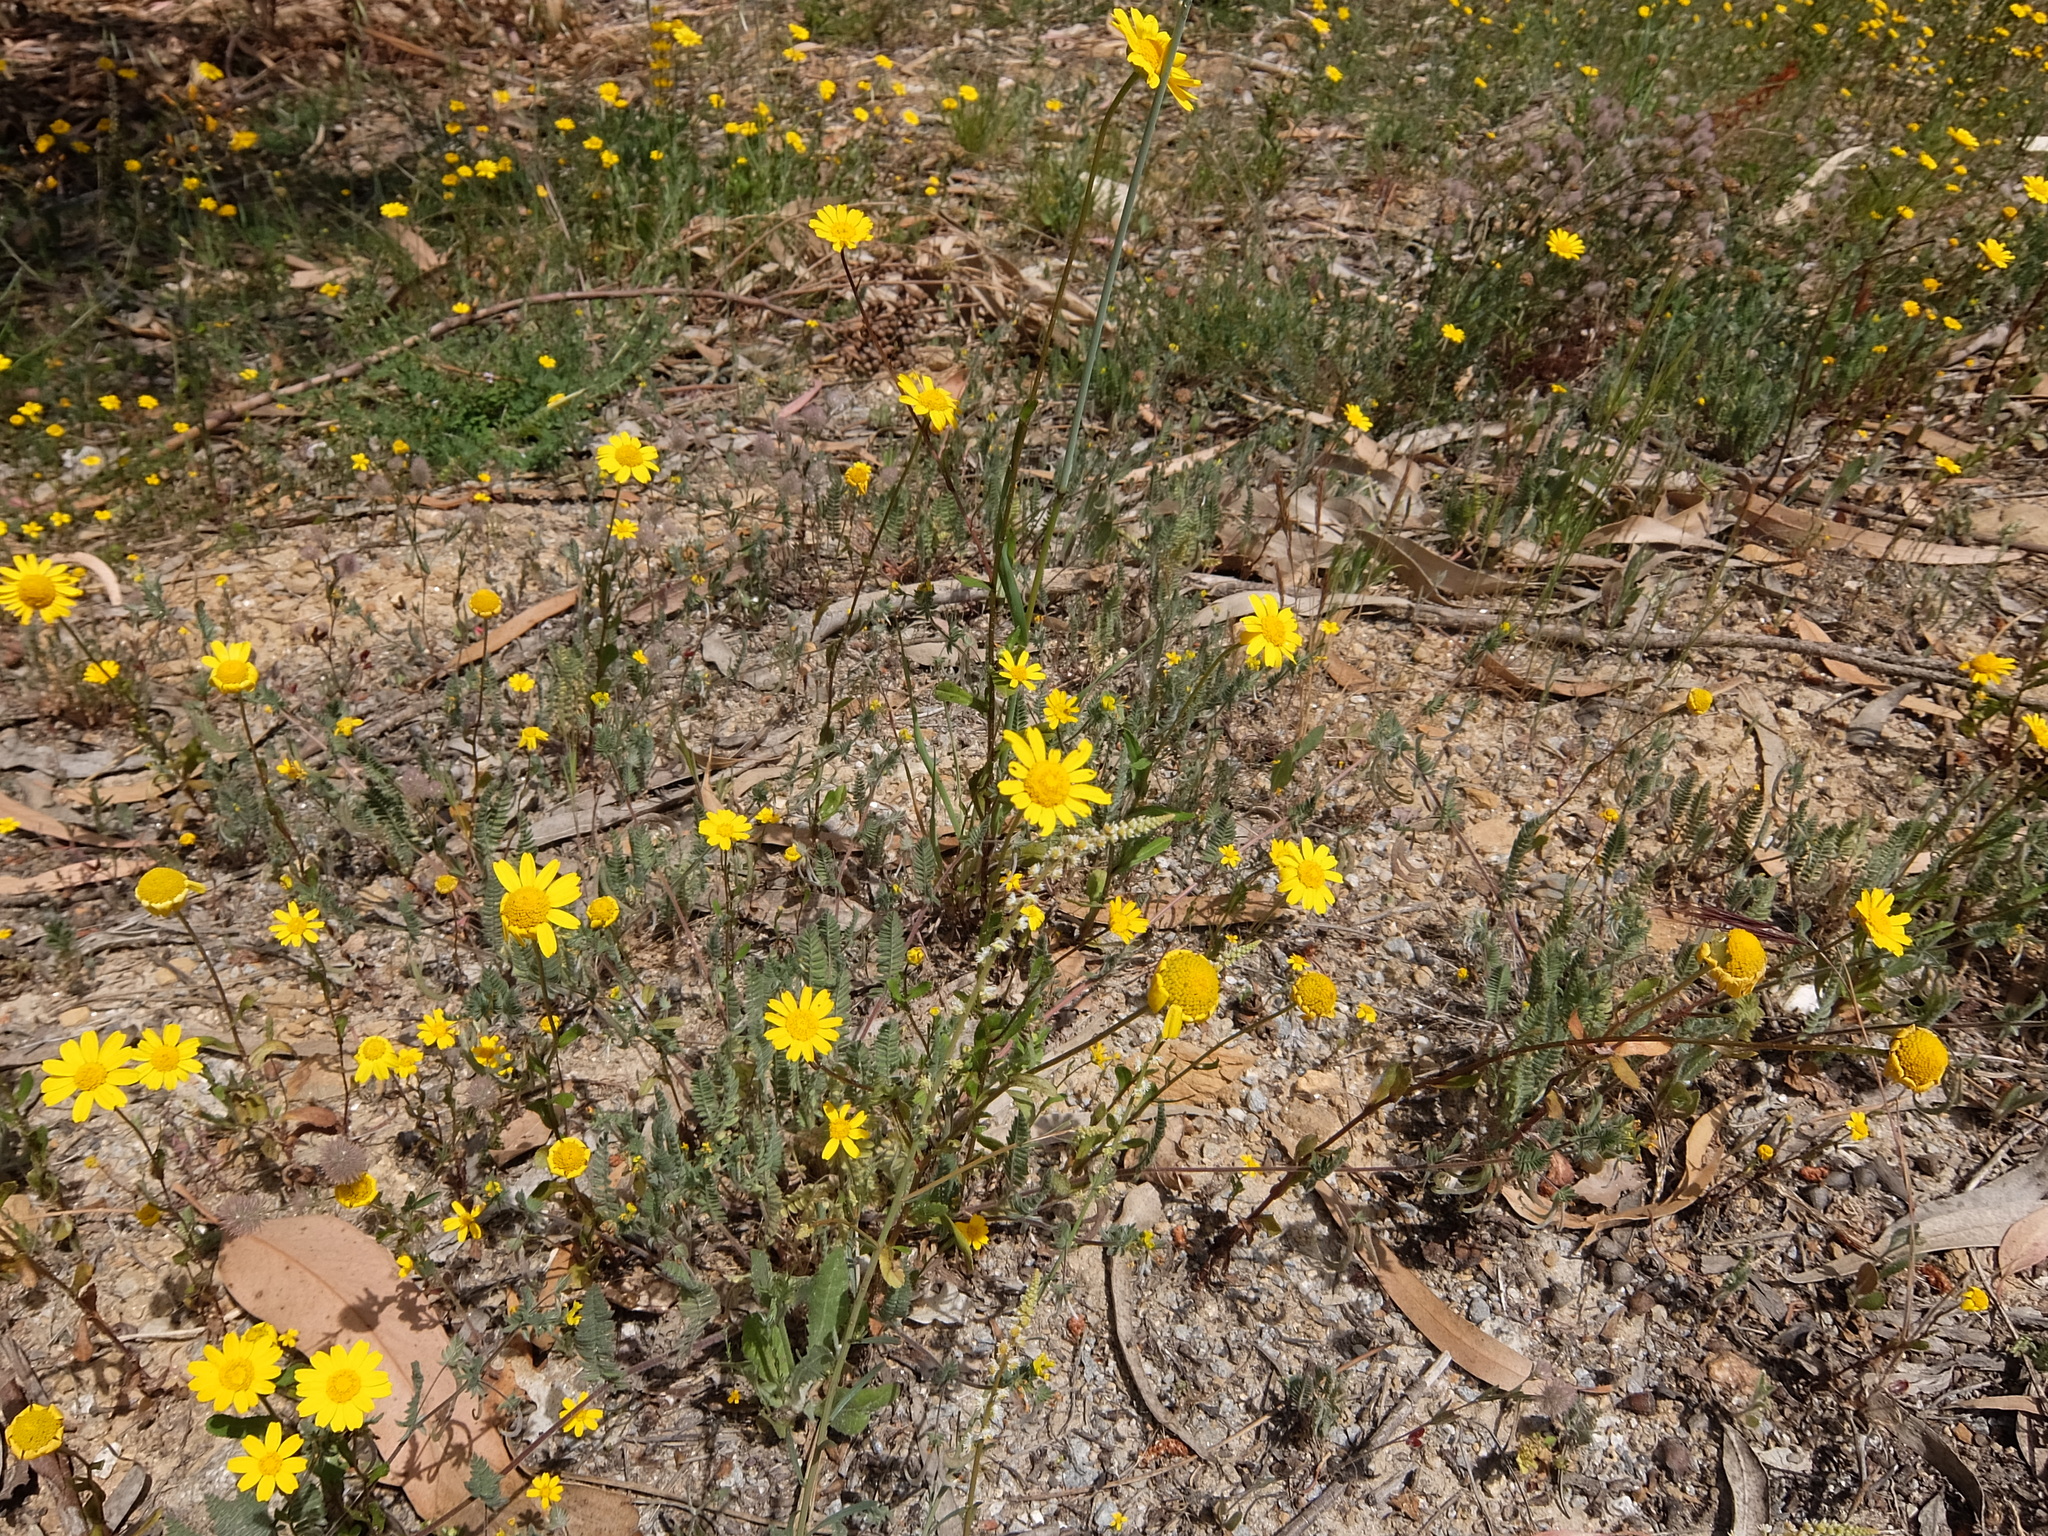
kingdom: Plantae
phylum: Tracheophyta
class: Magnoliopsida
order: Asterales
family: Asteraceae
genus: Coleostephus
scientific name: Coleostephus myconis
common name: Mediterranean marigold
